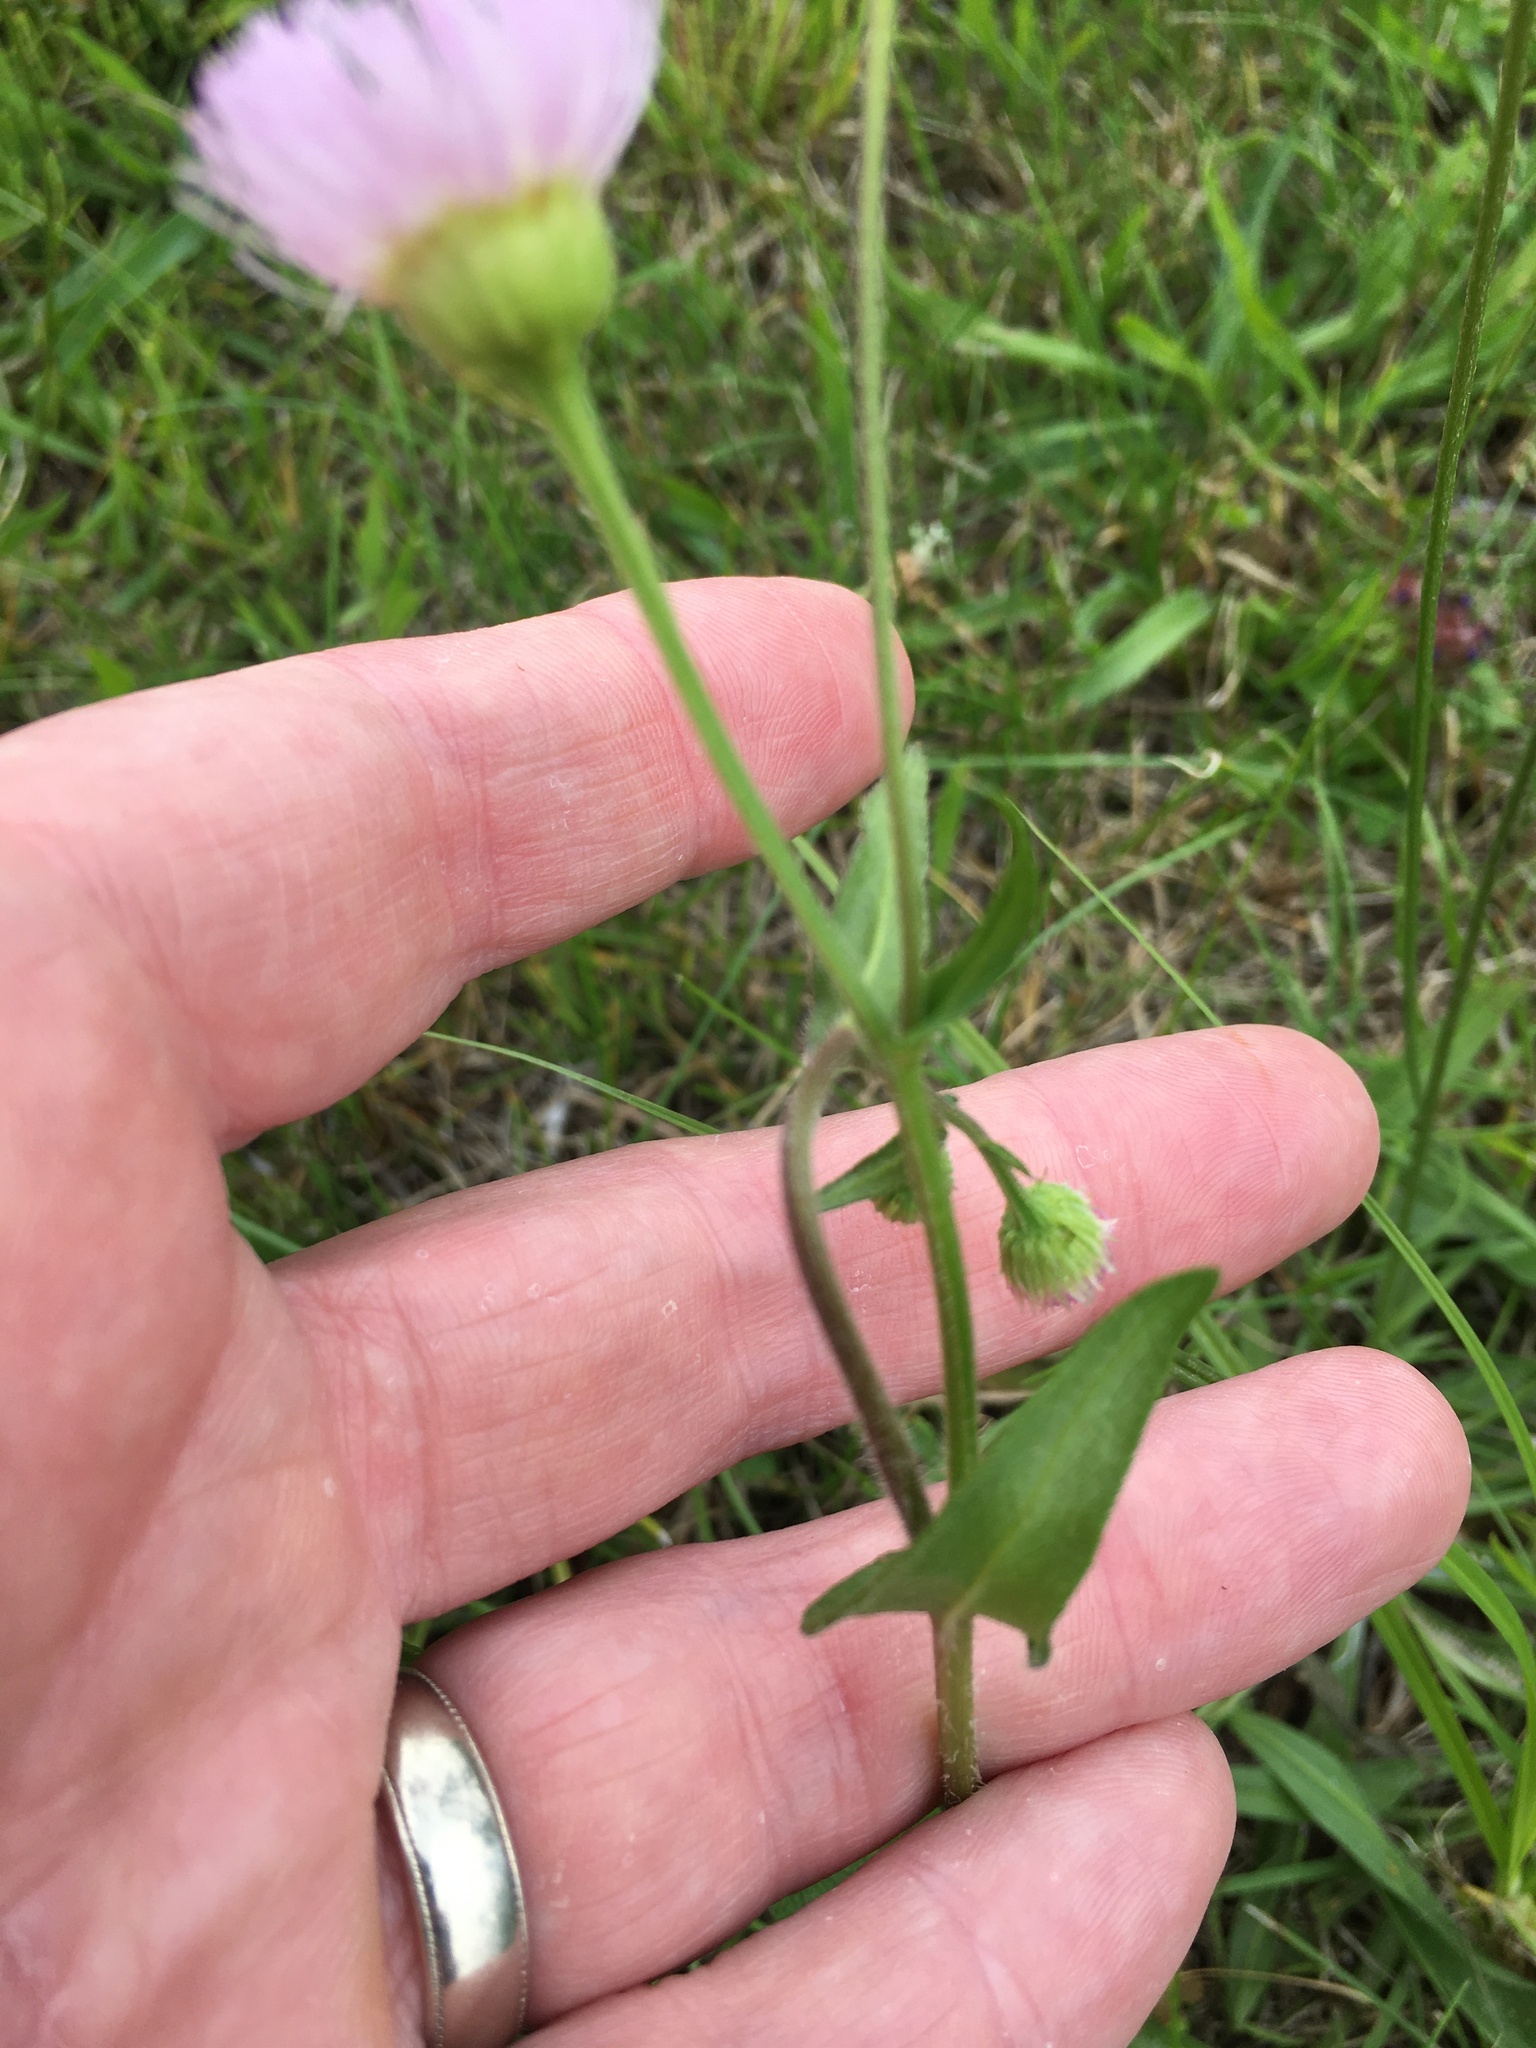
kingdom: Plantae
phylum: Tracheophyta
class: Magnoliopsida
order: Asterales
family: Asteraceae
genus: Erigeron
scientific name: Erigeron philadelphicus
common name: Robin's-plantain
